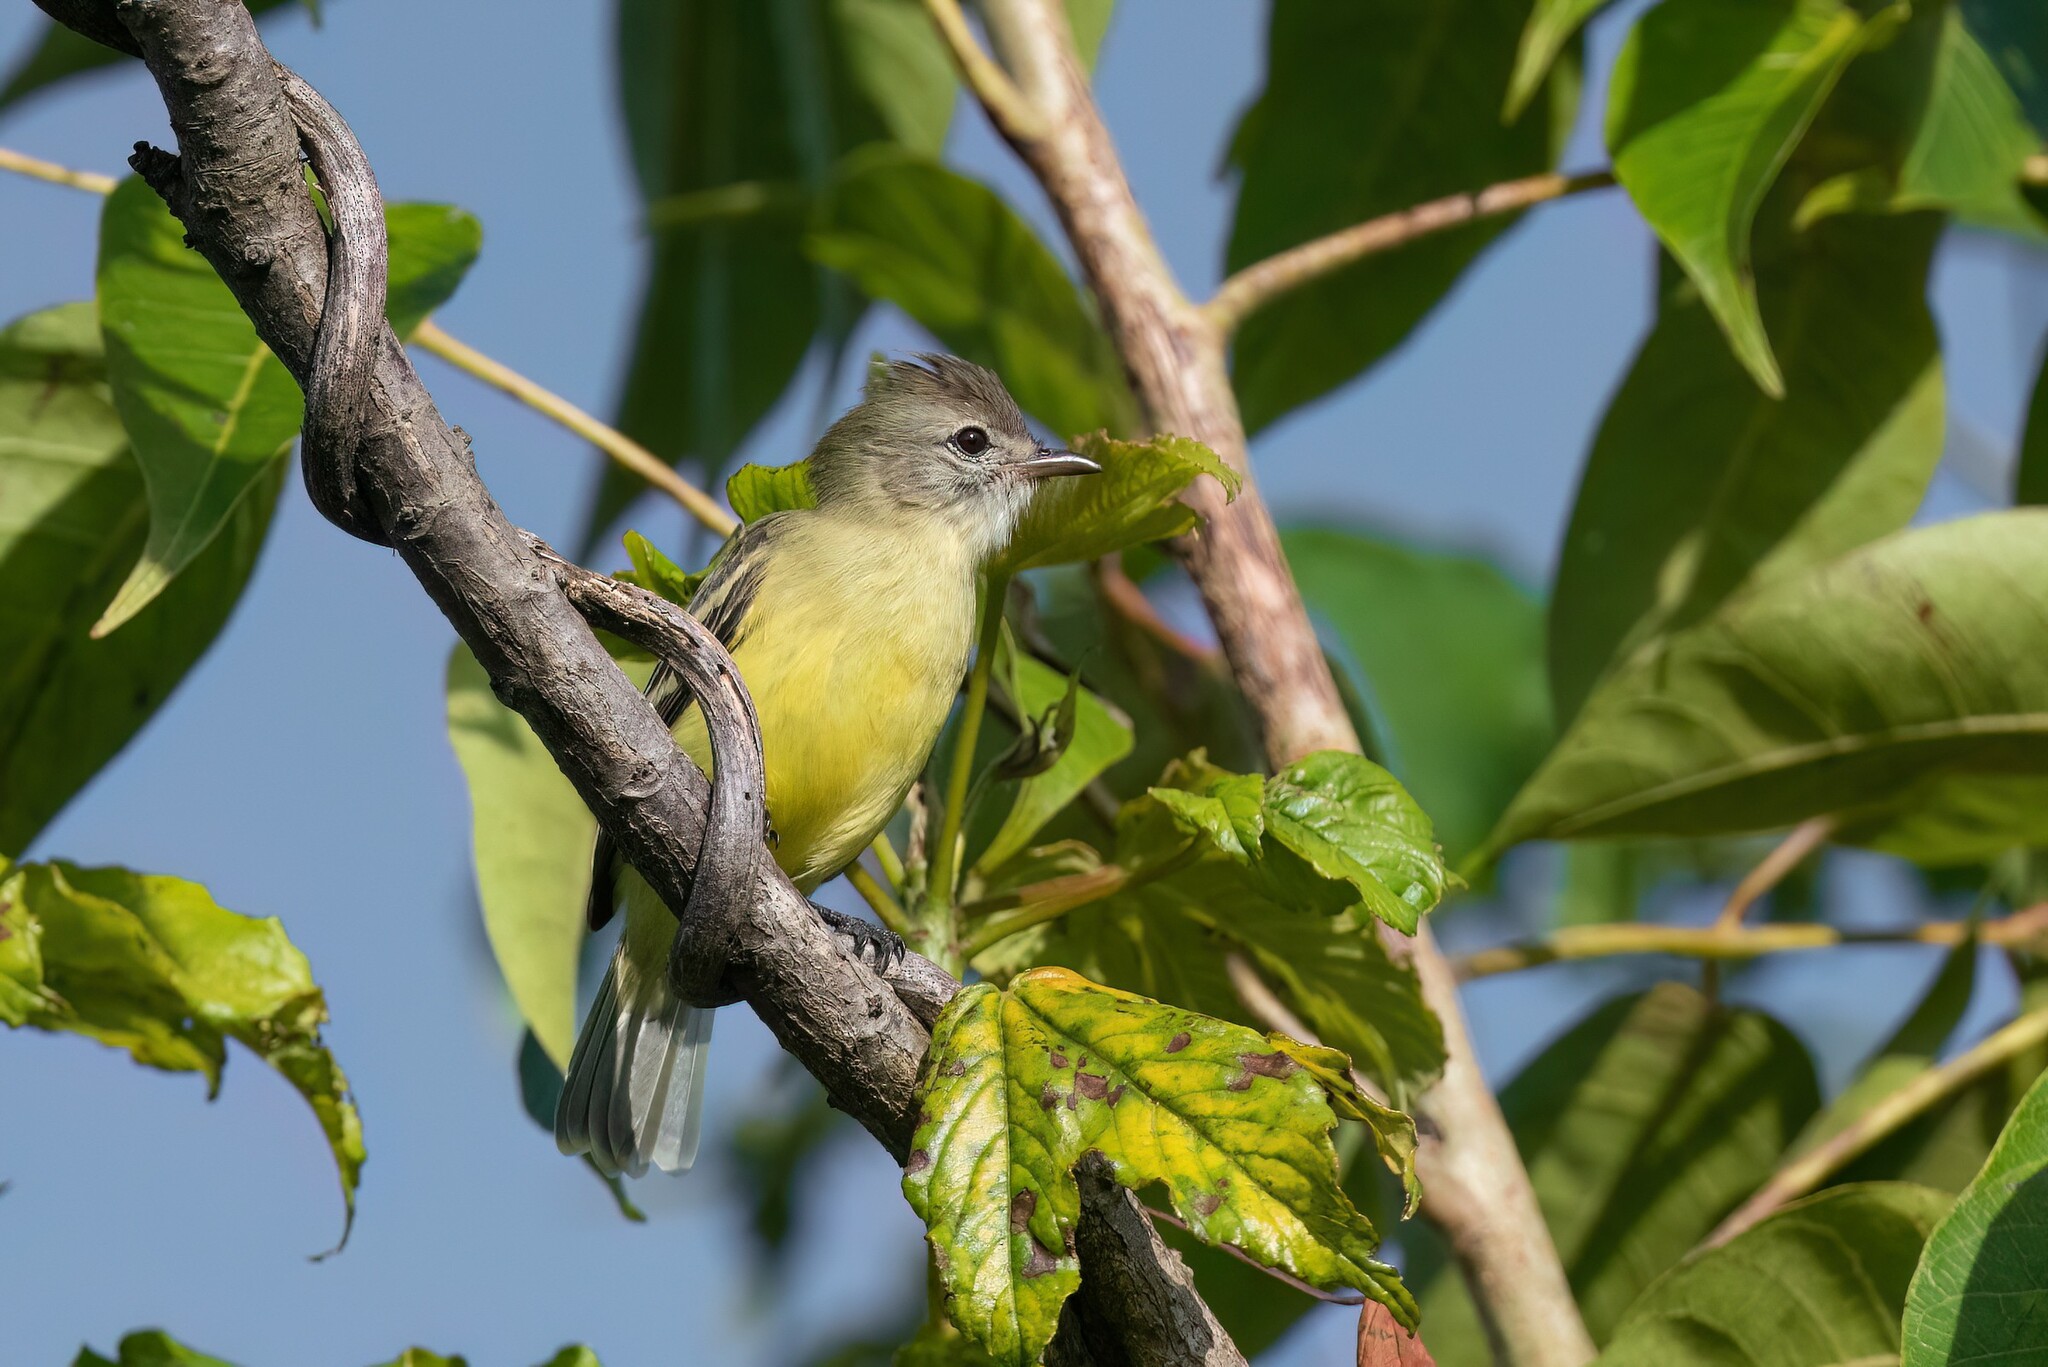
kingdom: Animalia
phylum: Chordata
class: Aves
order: Passeriformes
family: Tyrannidae
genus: Camptostoma
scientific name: Camptostoma obsoletum
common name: Southern beardless-tyrannulet
